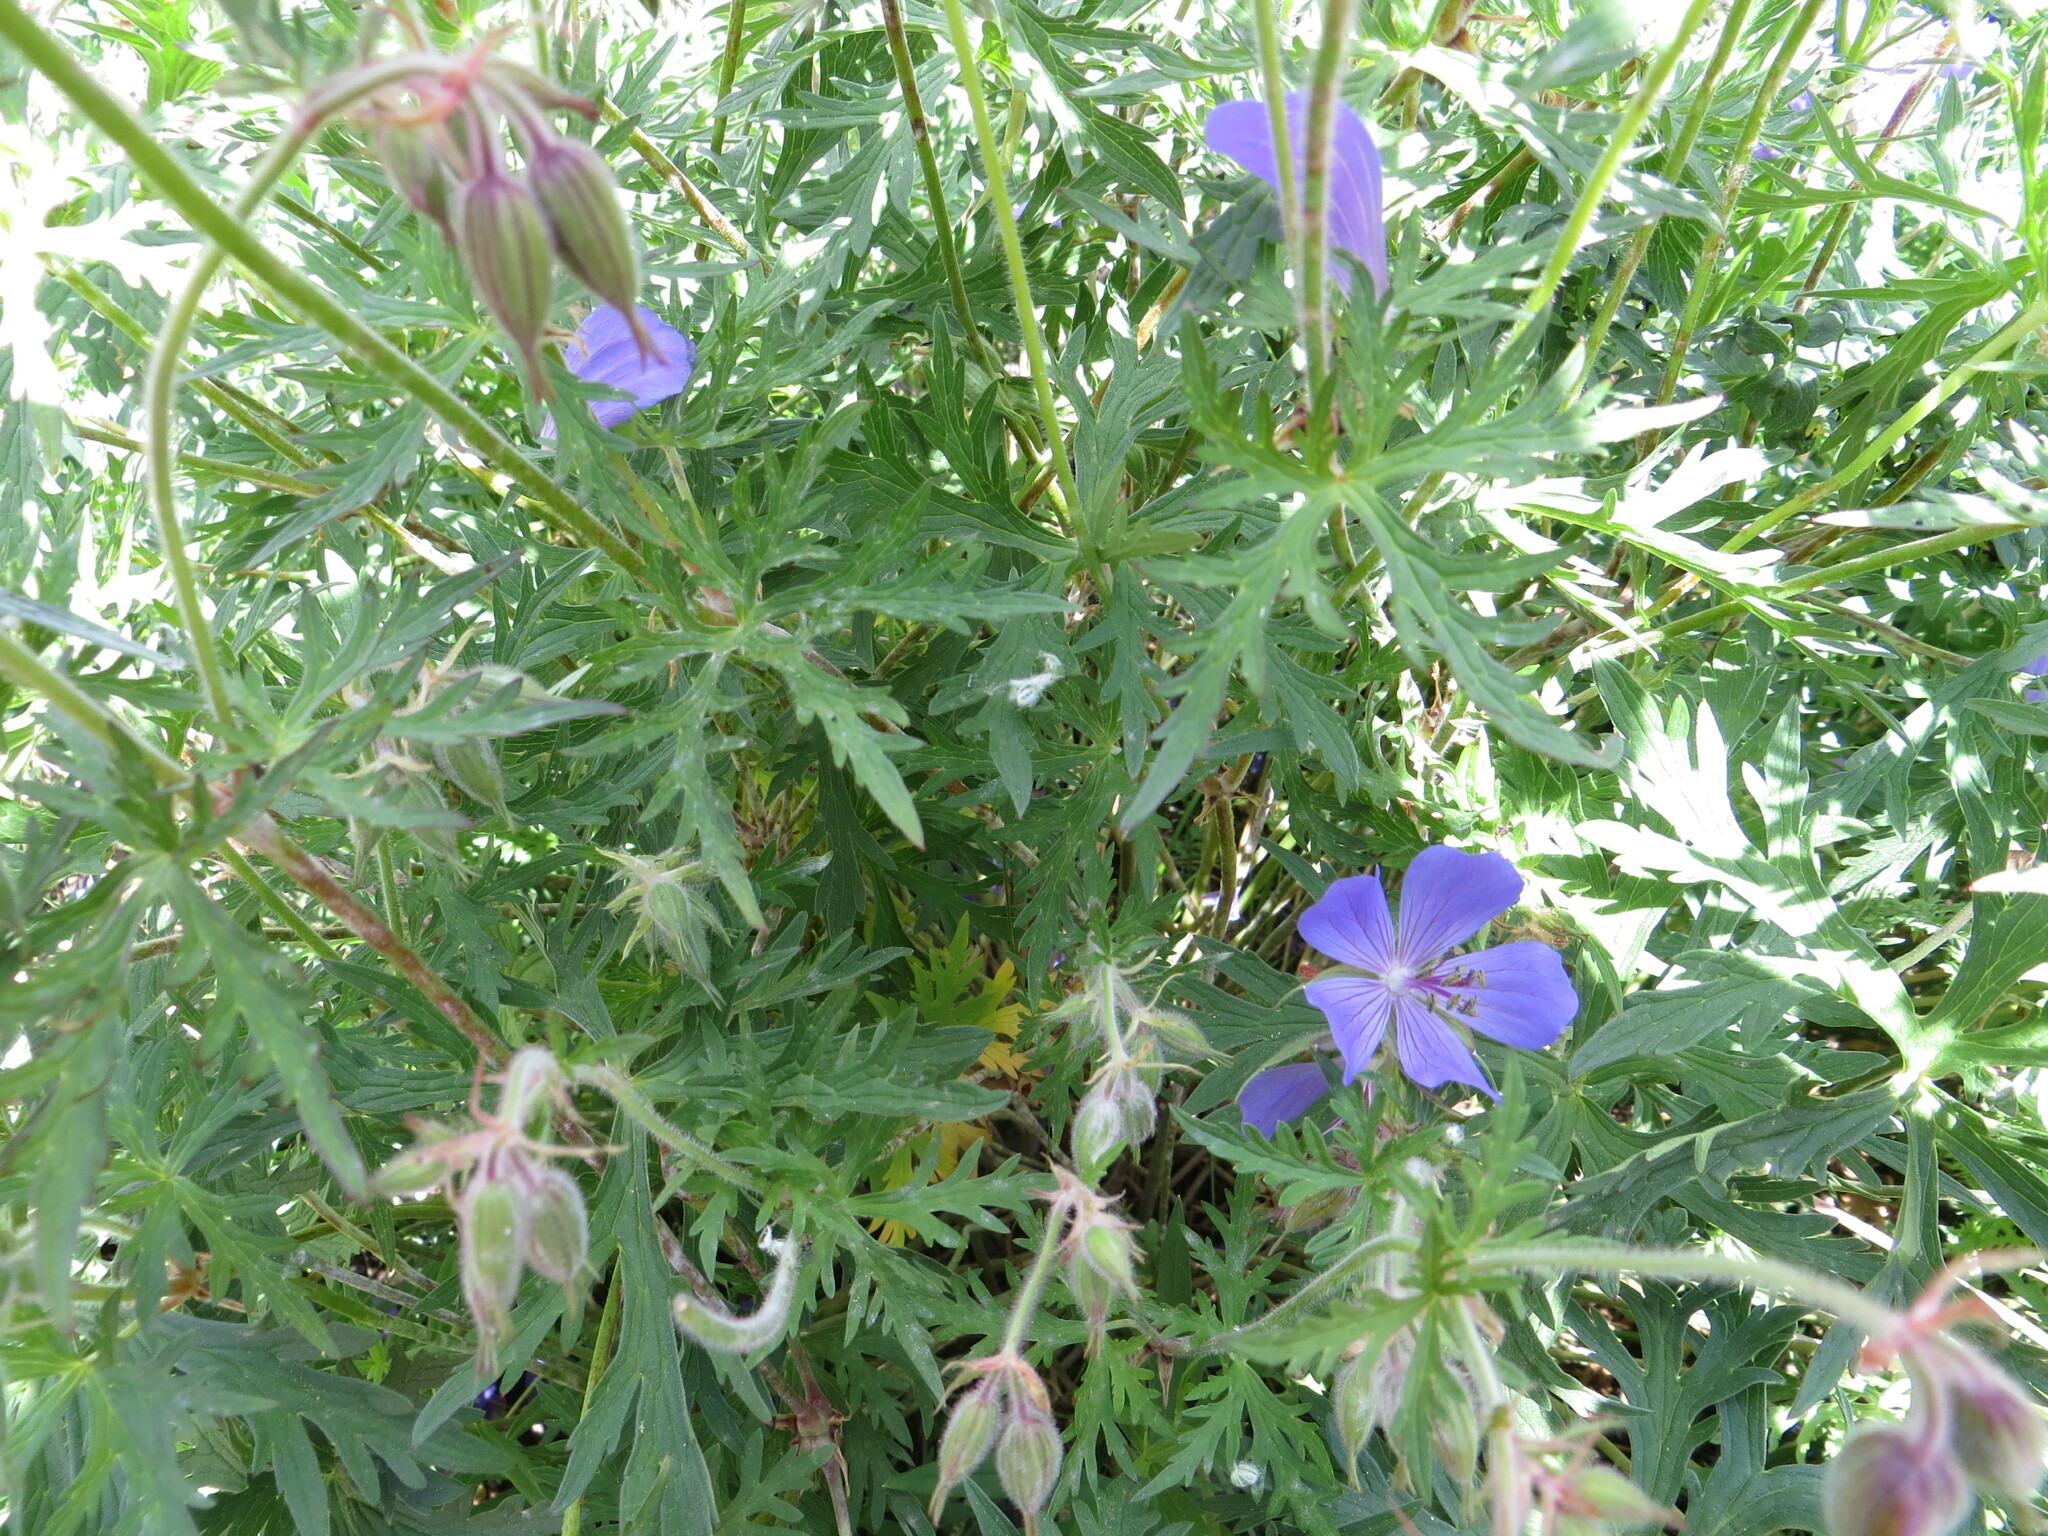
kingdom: Plantae
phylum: Tracheophyta
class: Magnoliopsida
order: Geraniales
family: Geraniaceae
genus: Geranium
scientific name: Geranium pratense
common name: Meadow crane's-bill
